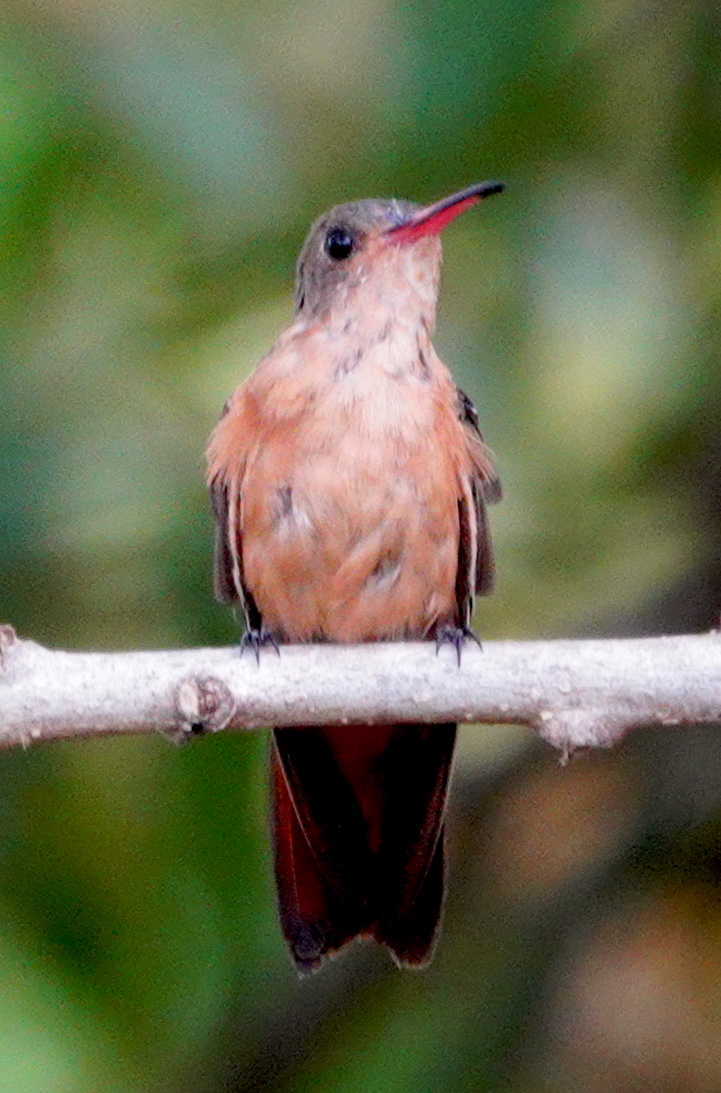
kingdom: Animalia
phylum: Chordata
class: Aves
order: Apodiformes
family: Trochilidae
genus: Amazilia
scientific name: Amazilia rutila
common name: Cinnamon hummingbird
